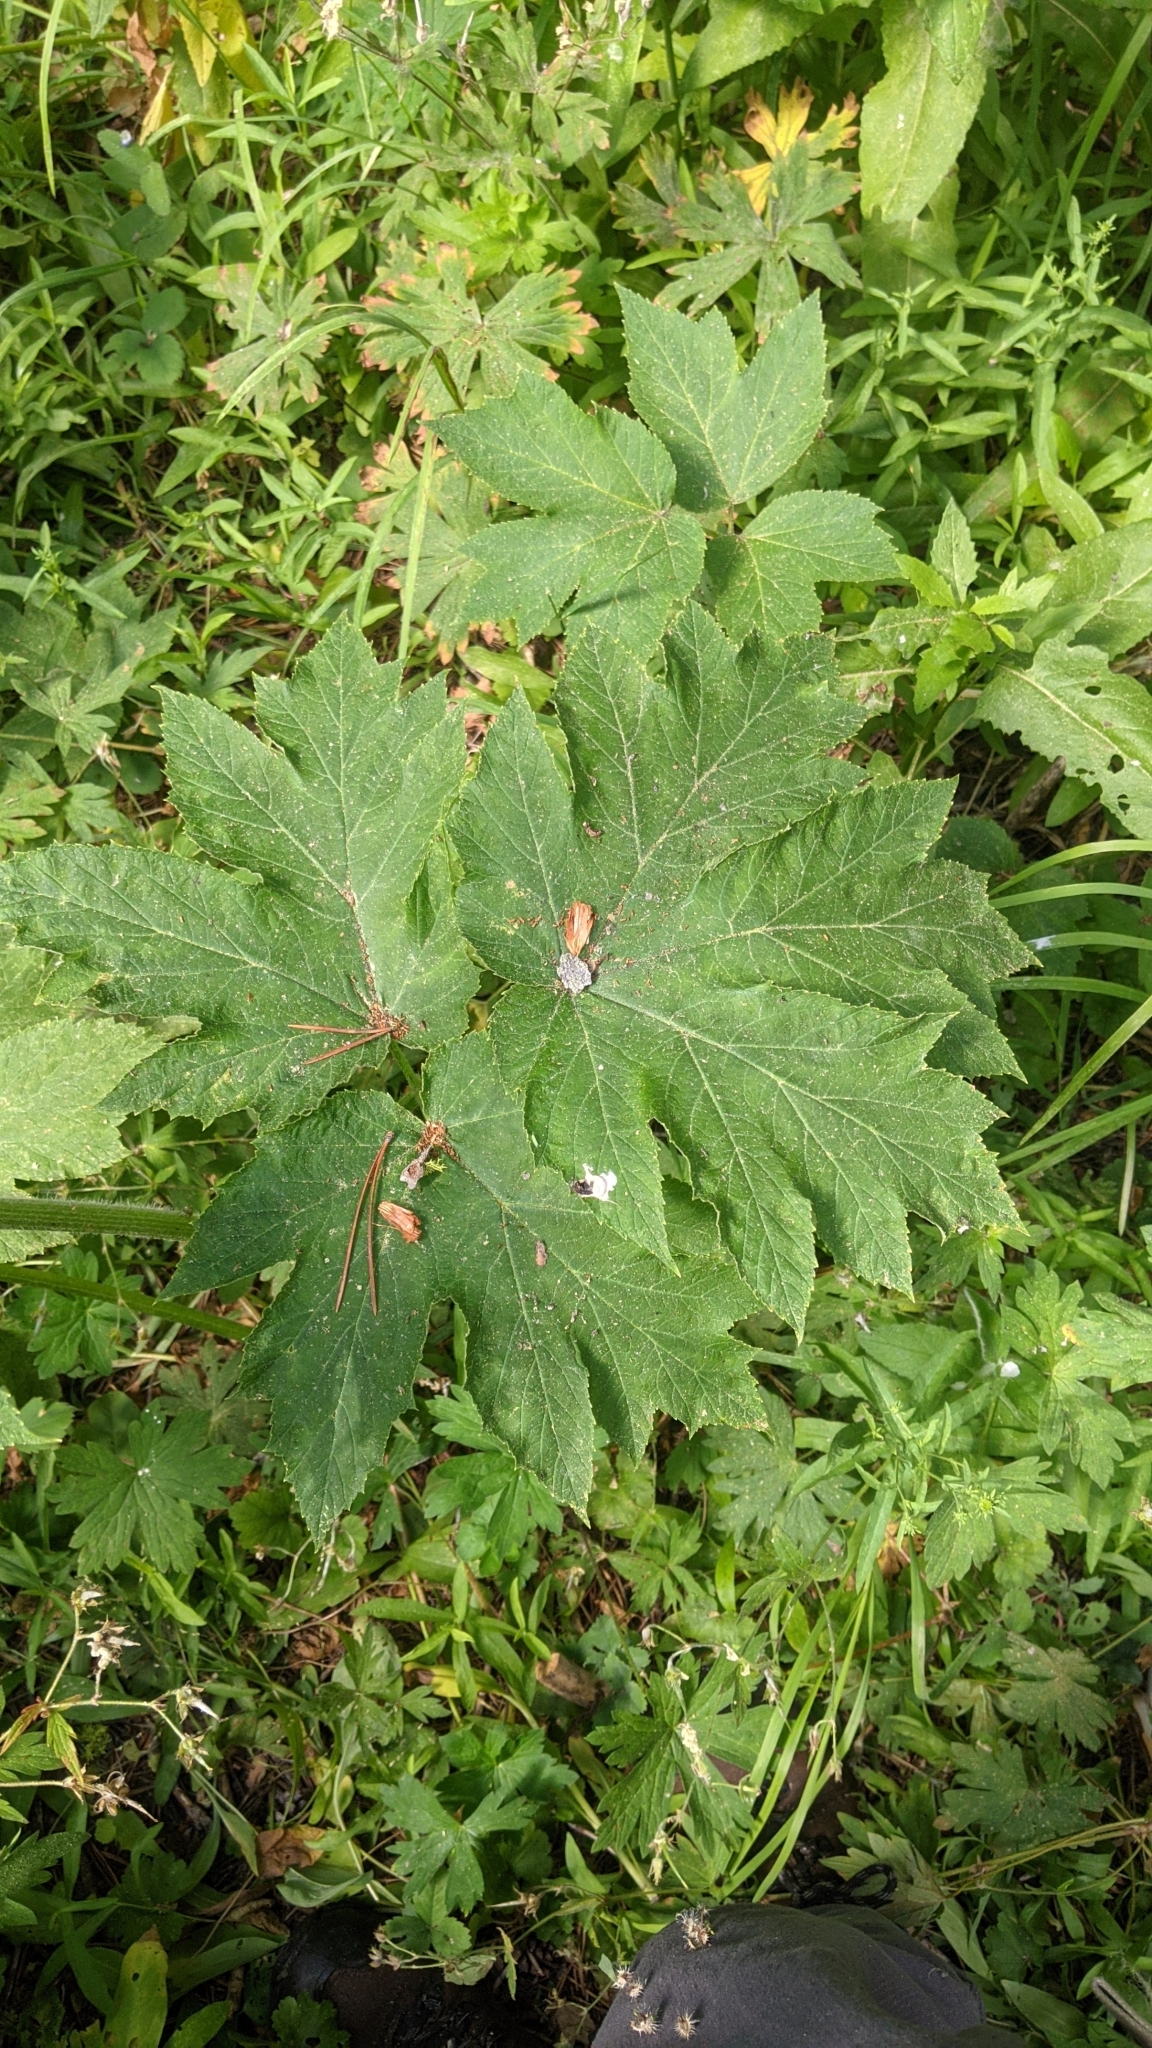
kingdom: Plantae
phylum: Tracheophyta
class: Magnoliopsida
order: Apiales
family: Apiaceae
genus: Heracleum
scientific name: Heracleum maximum
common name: American cow parsnip
